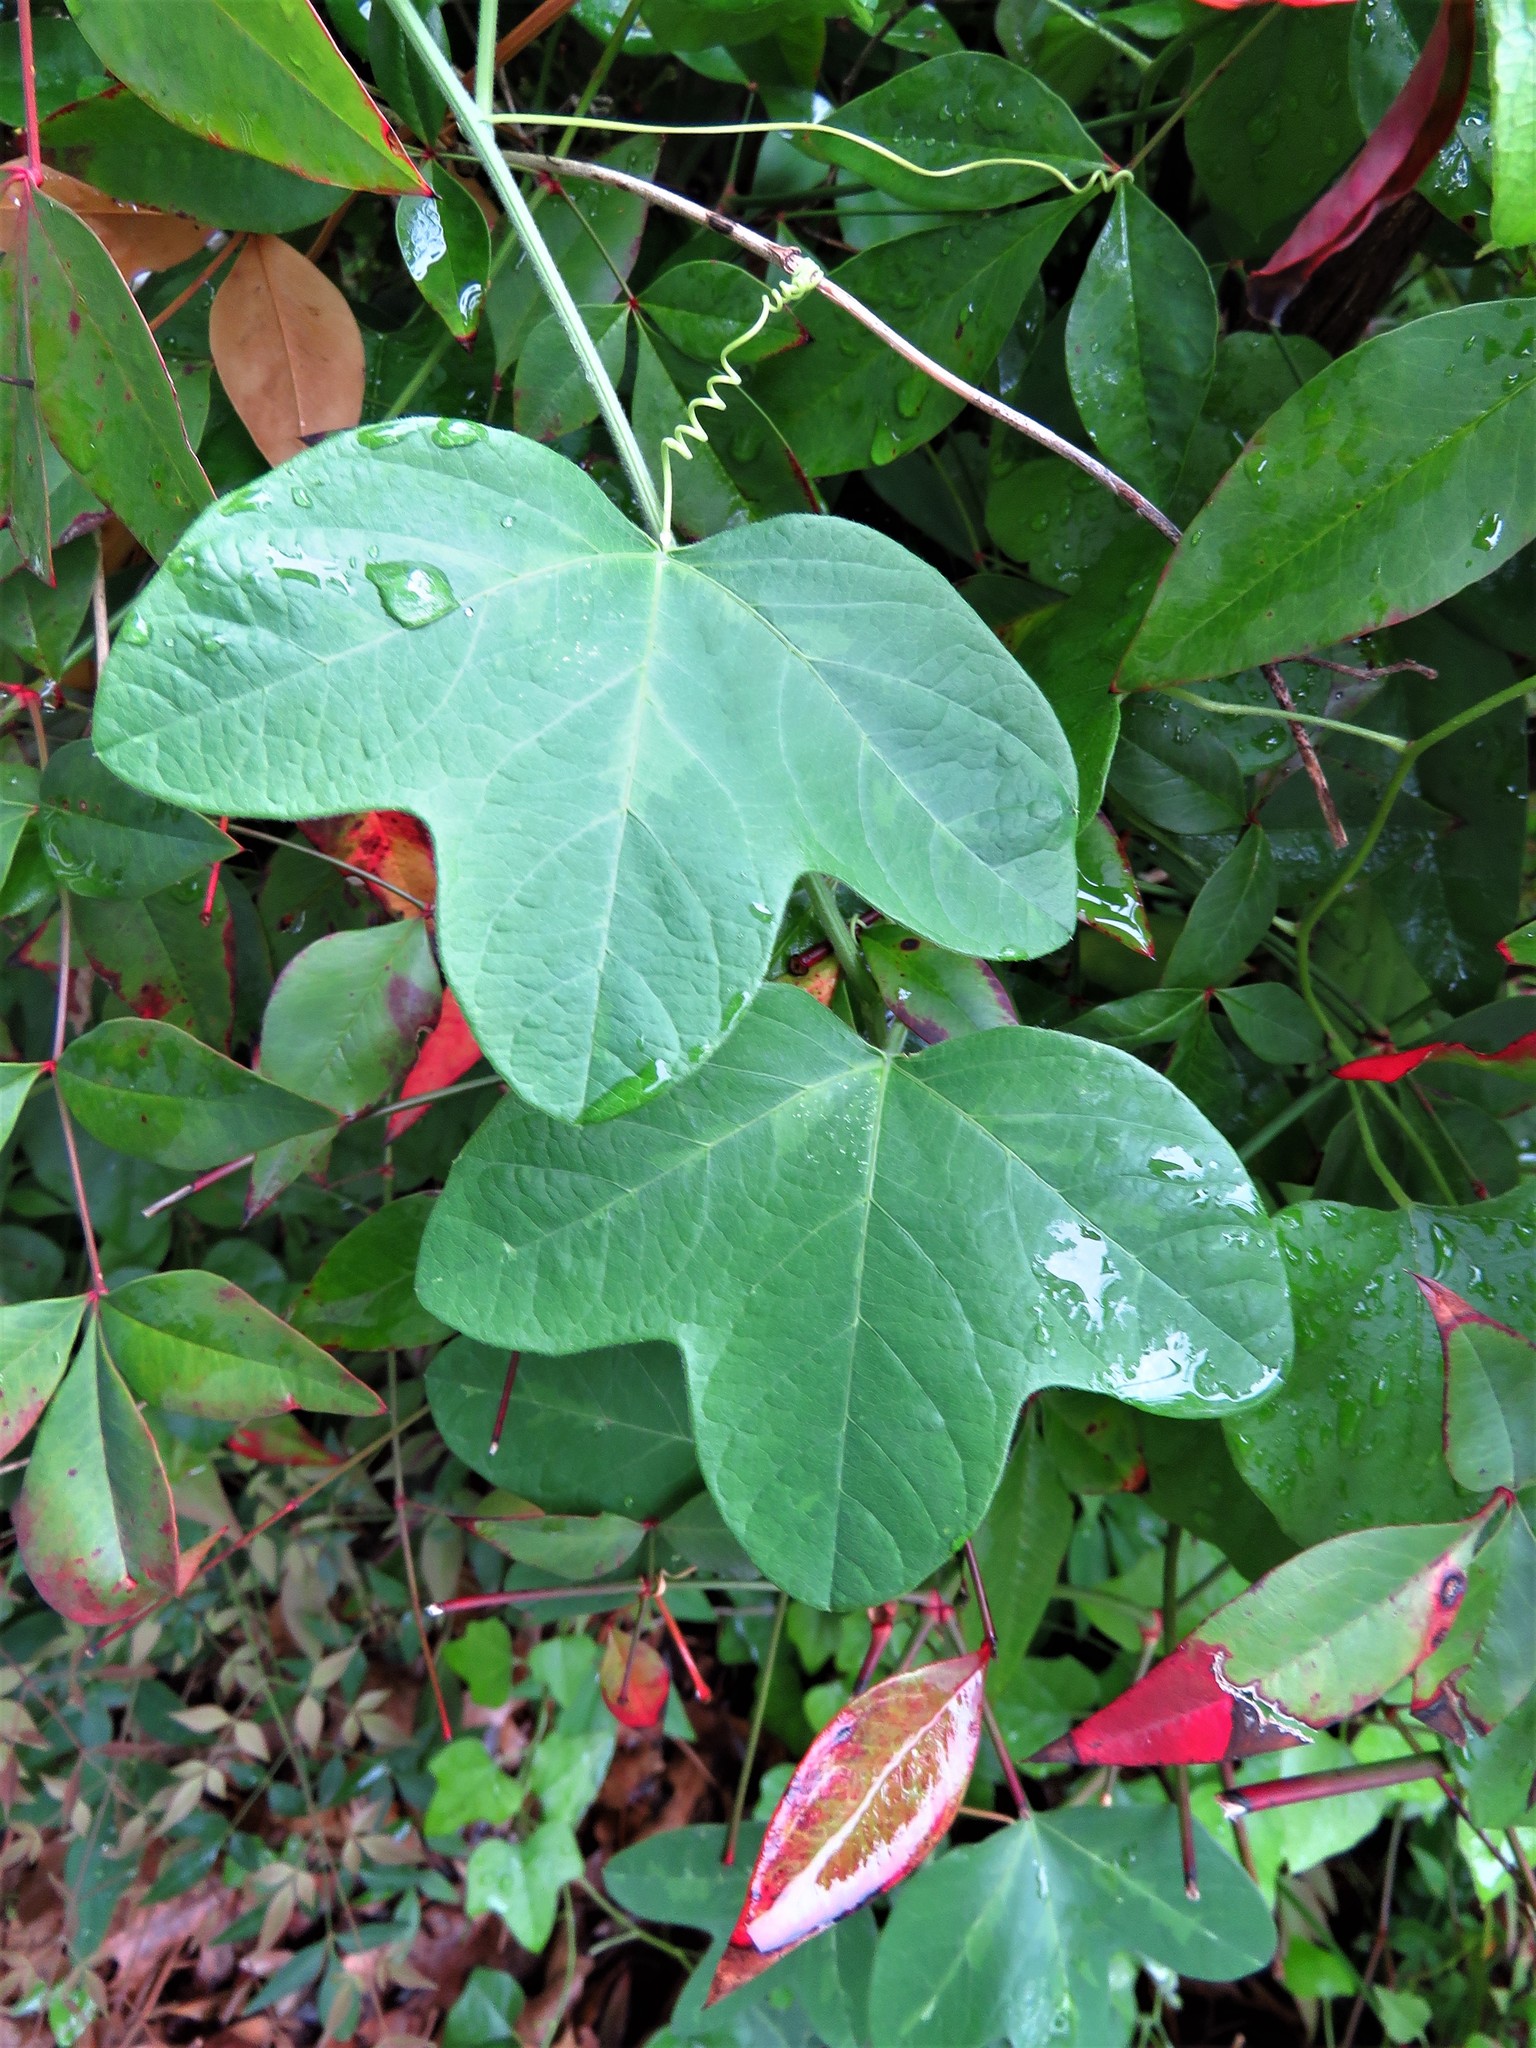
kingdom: Plantae
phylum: Tracheophyta
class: Magnoliopsida
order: Malpighiales
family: Passifloraceae
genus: Passiflora
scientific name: Passiflora lutea
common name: Yellow passionflower
